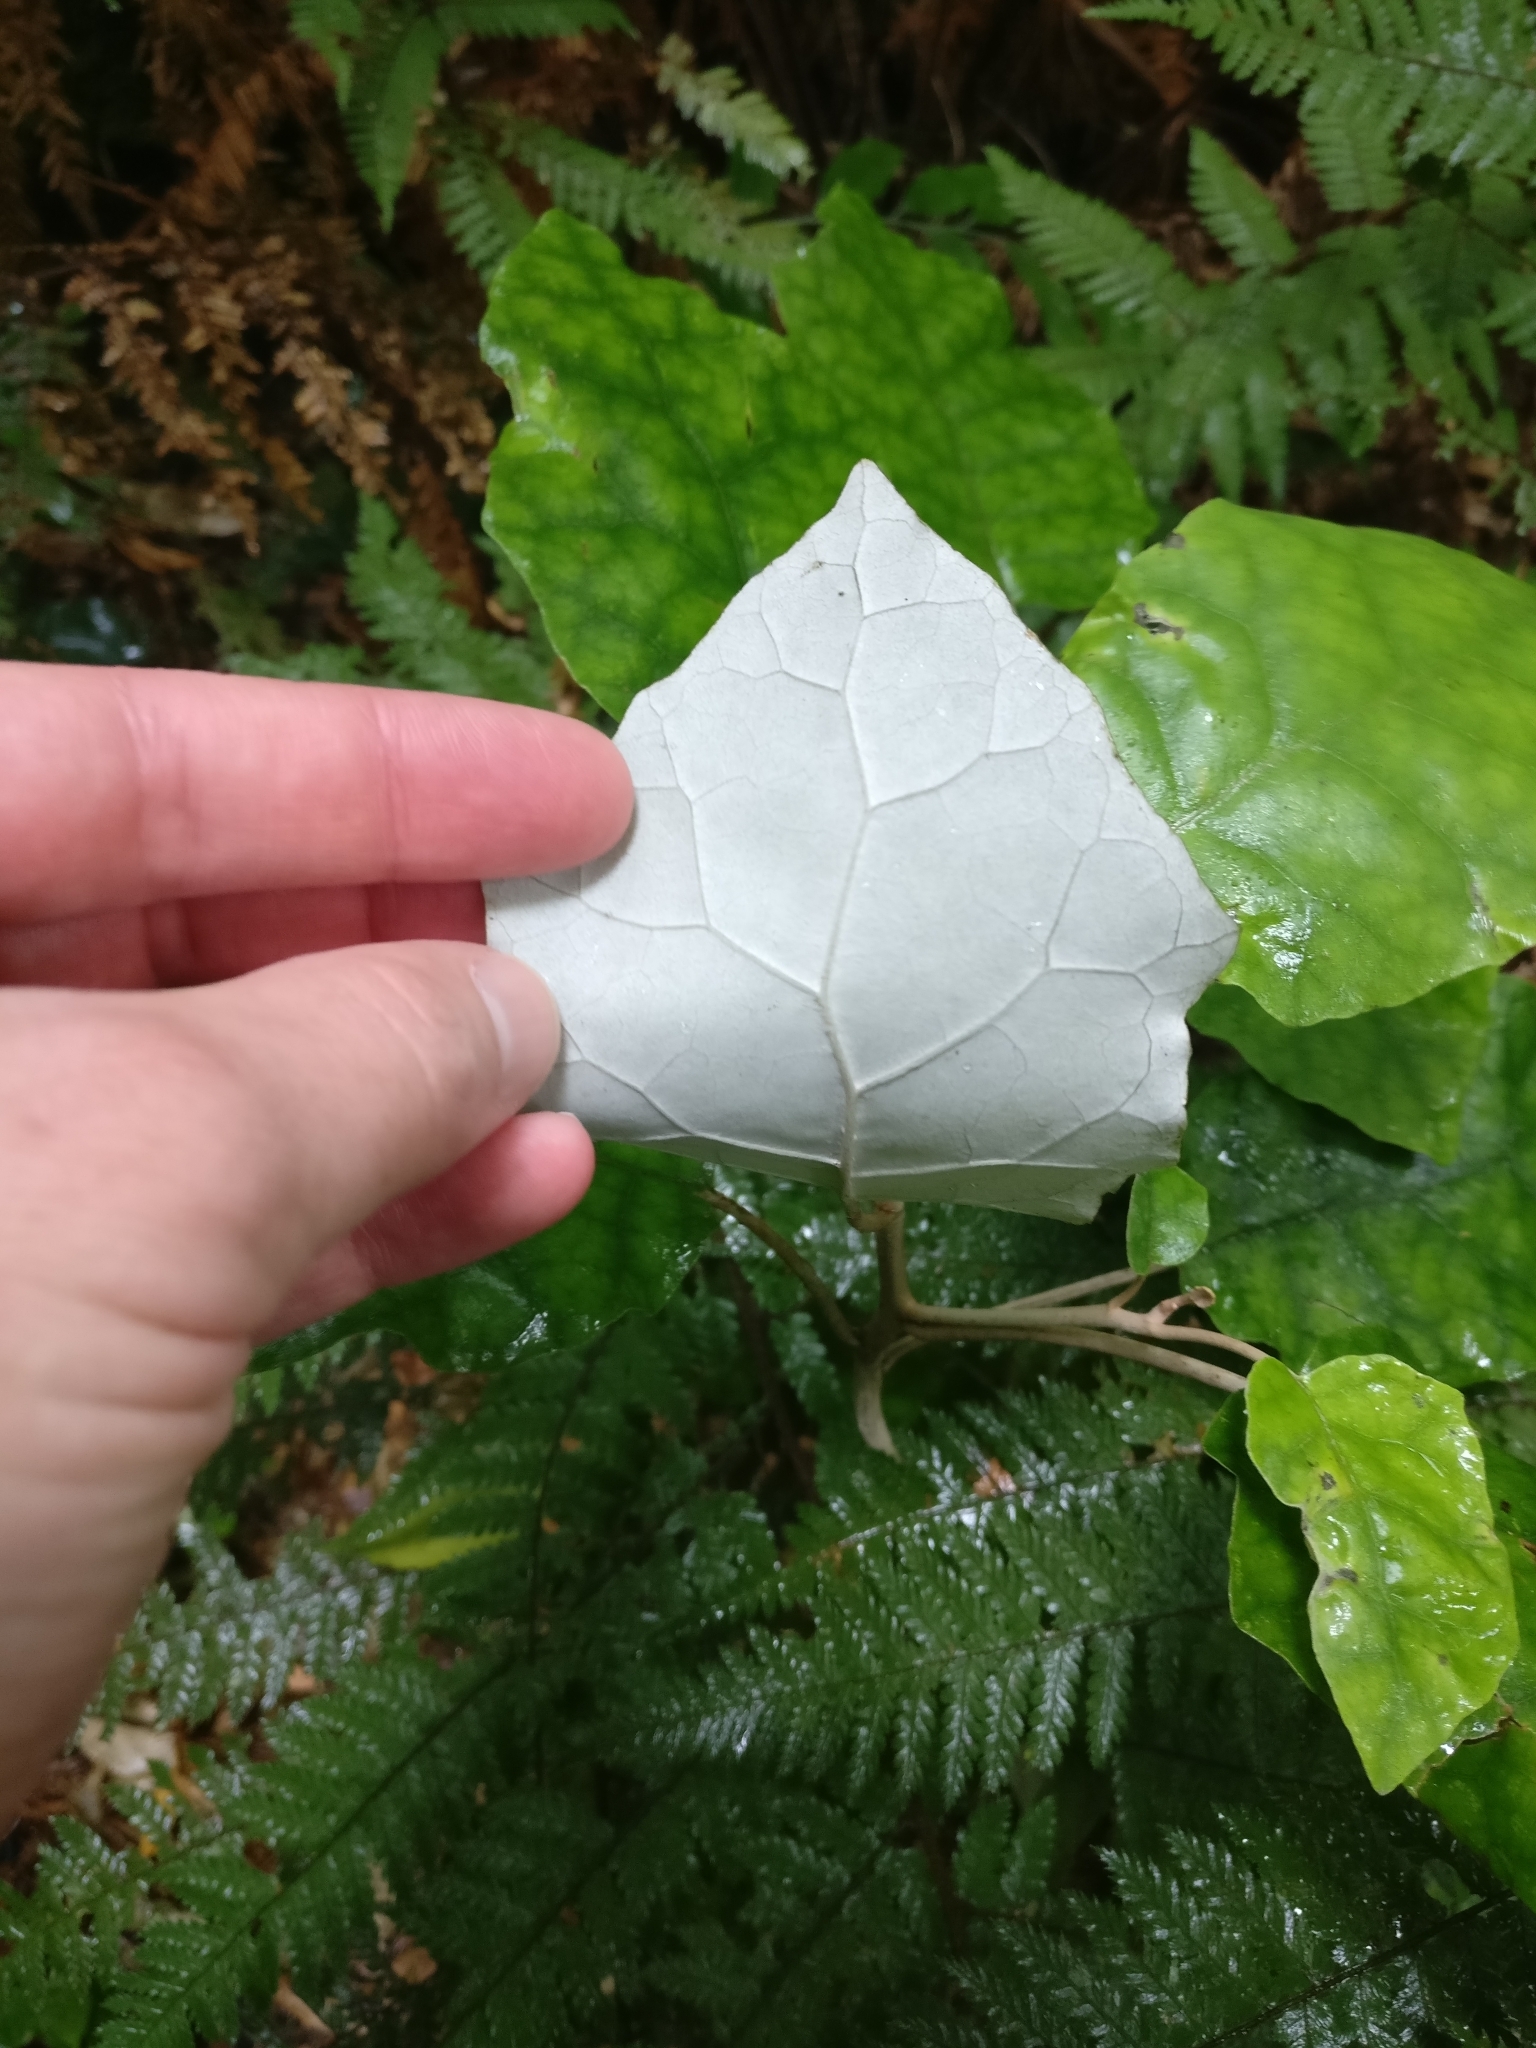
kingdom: Plantae
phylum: Tracheophyta
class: Magnoliopsida
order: Asterales
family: Asteraceae
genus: Brachyglottis
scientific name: Brachyglottis repanda
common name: Hedge ragwort
